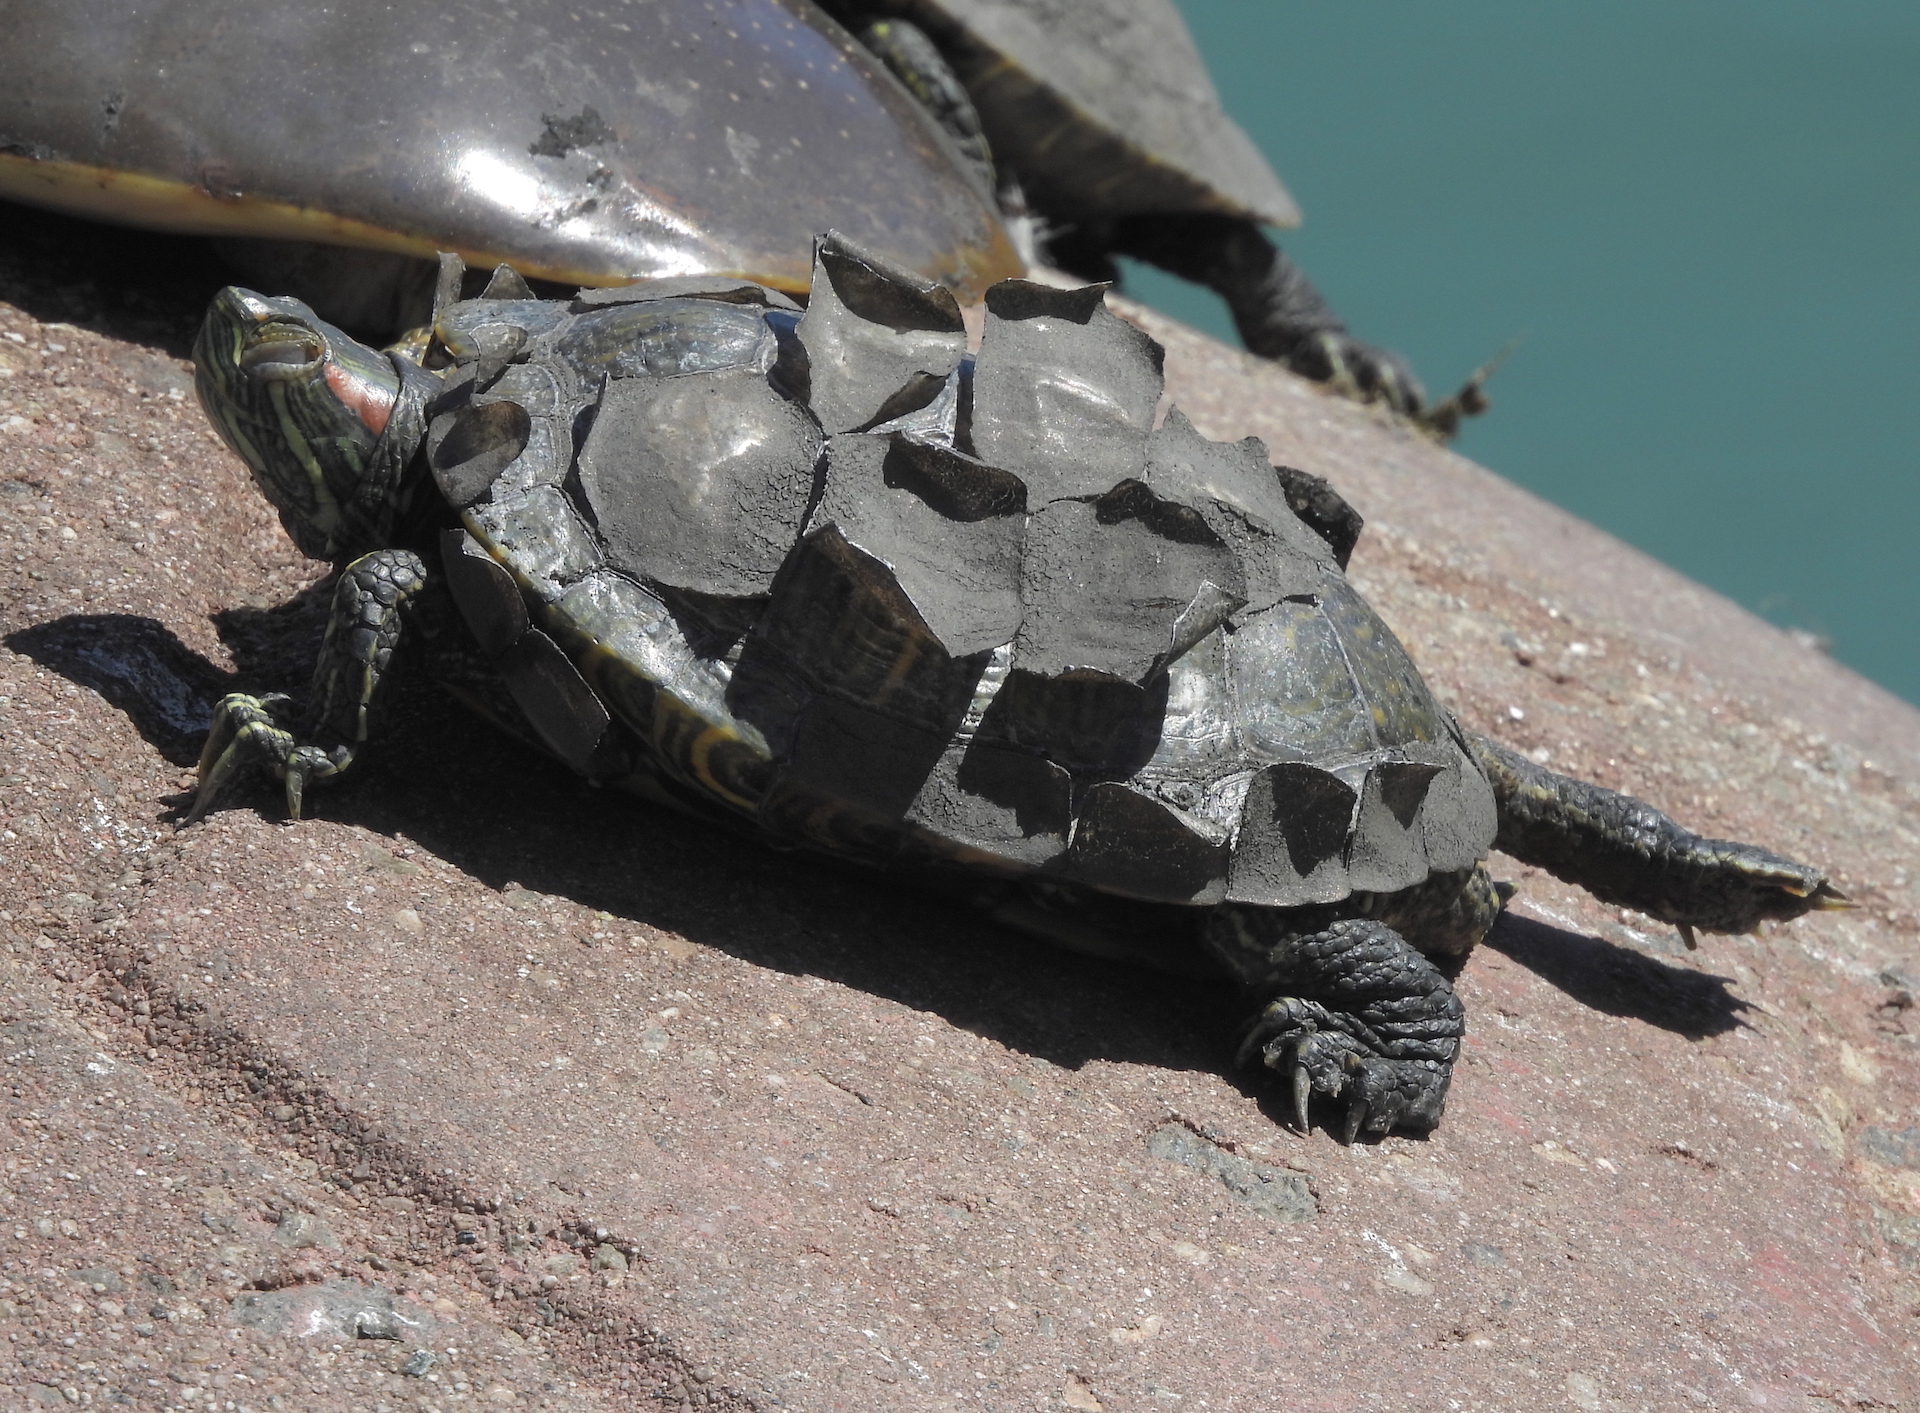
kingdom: Animalia
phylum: Chordata
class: Testudines
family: Emydidae
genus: Trachemys
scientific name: Trachemys scripta
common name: Slider
